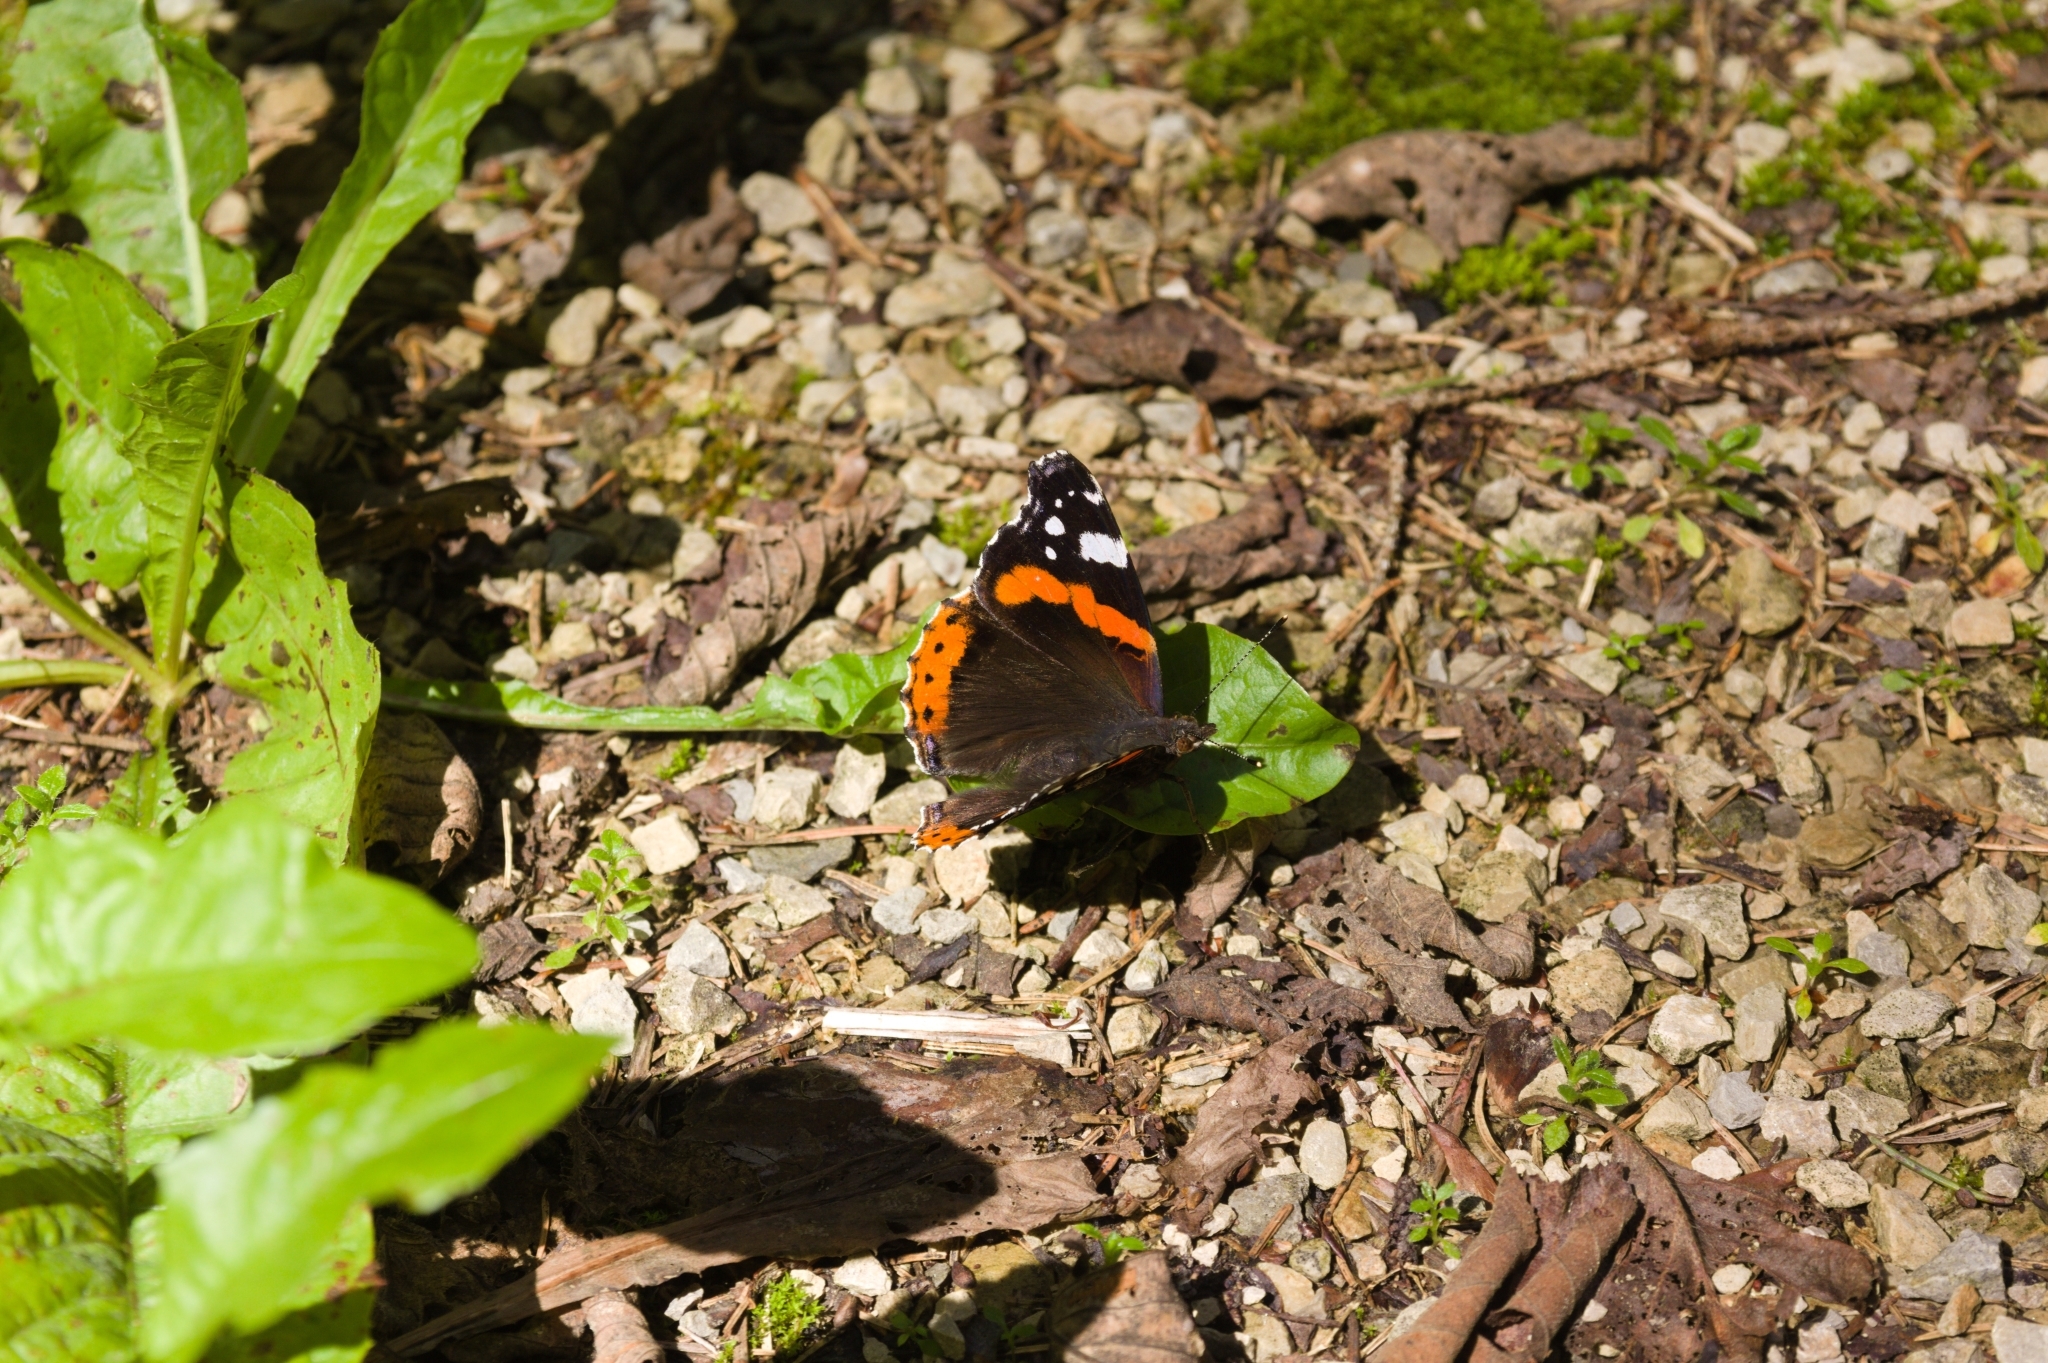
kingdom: Animalia
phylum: Arthropoda
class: Insecta
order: Lepidoptera
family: Nymphalidae
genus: Vanessa
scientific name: Vanessa atalanta
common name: Red admiral
